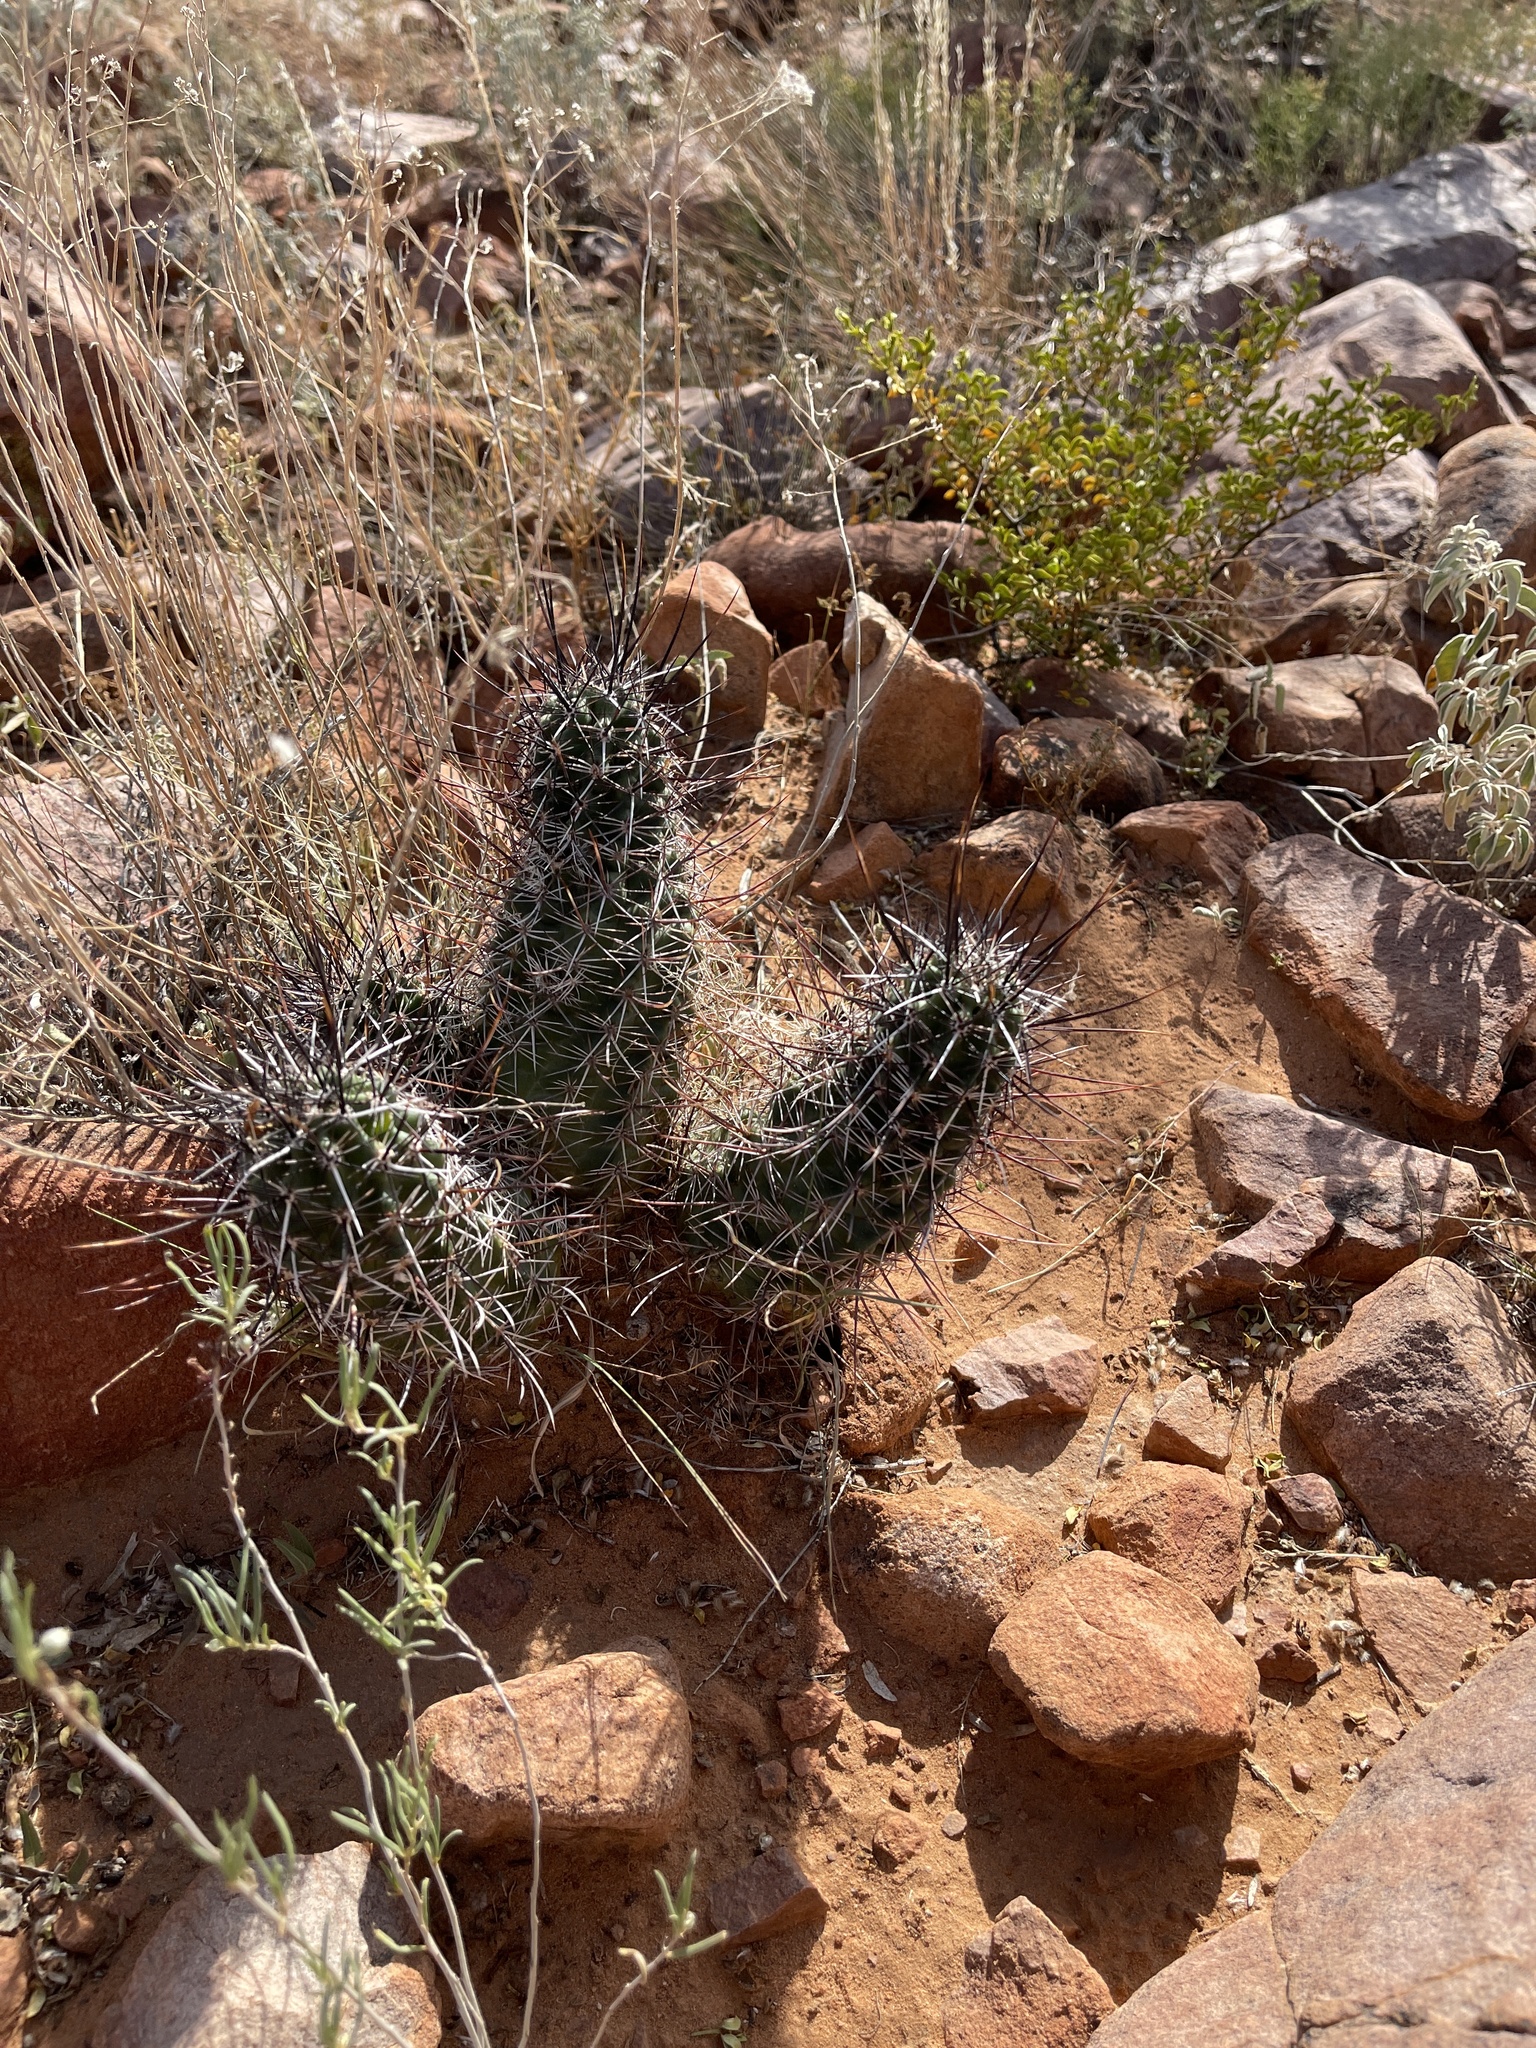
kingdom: Plantae
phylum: Tracheophyta
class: Magnoliopsida
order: Caryophyllales
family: Cactaceae
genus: Echinocereus
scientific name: Echinocereus fendleri
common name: Fendler's hedgehog cactus
